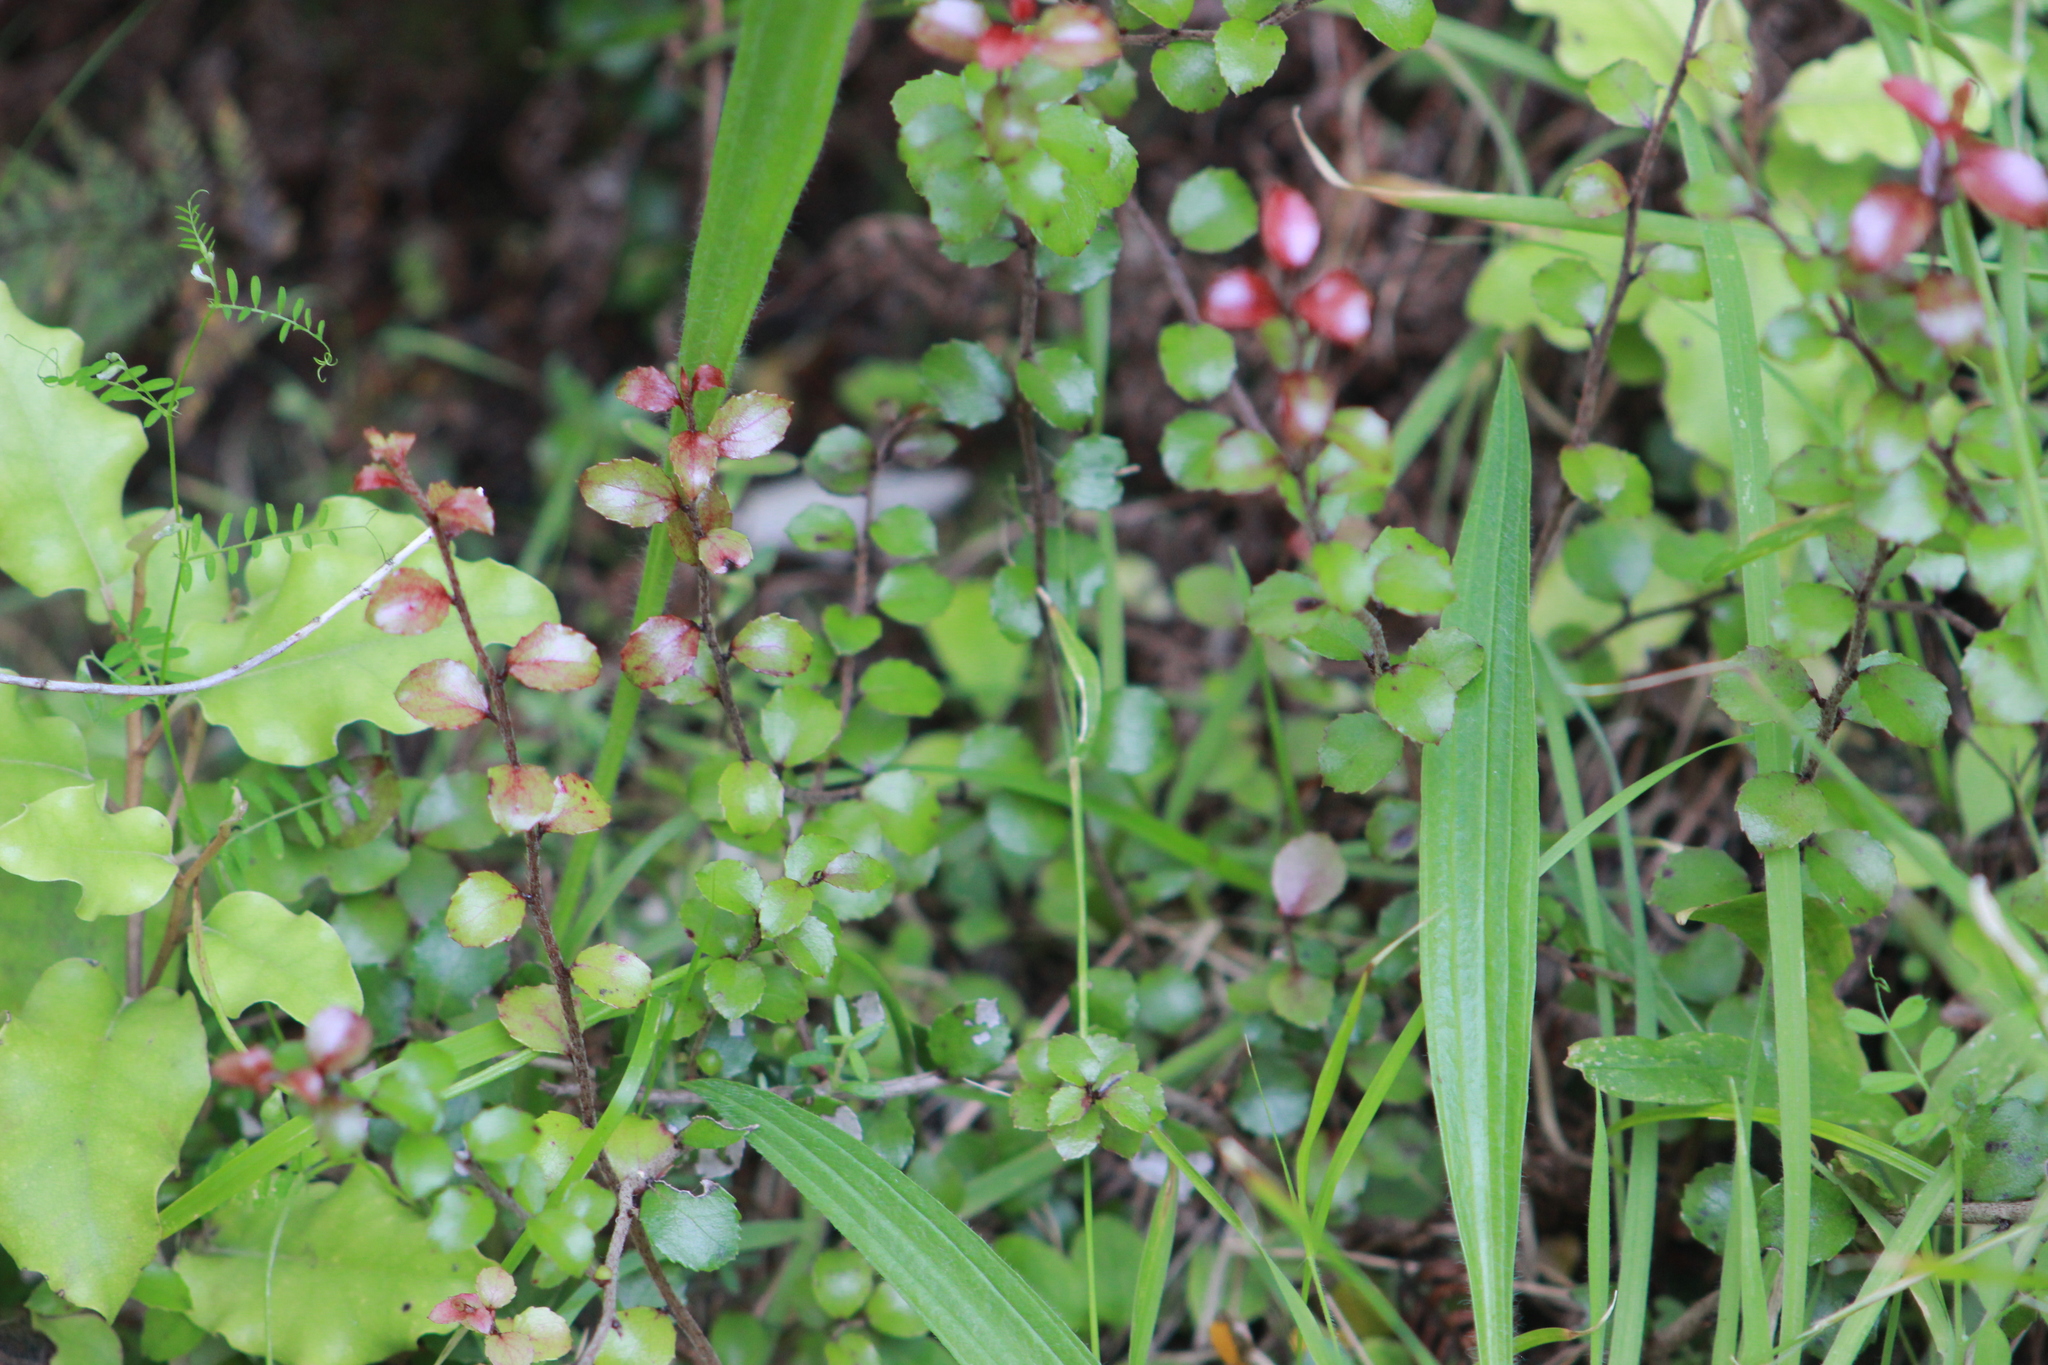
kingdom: Plantae
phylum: Tracheophyta
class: Magnoliopsida
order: Ericales
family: Ericaceae
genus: Gaultheria
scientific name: Gaultheria antipoda
